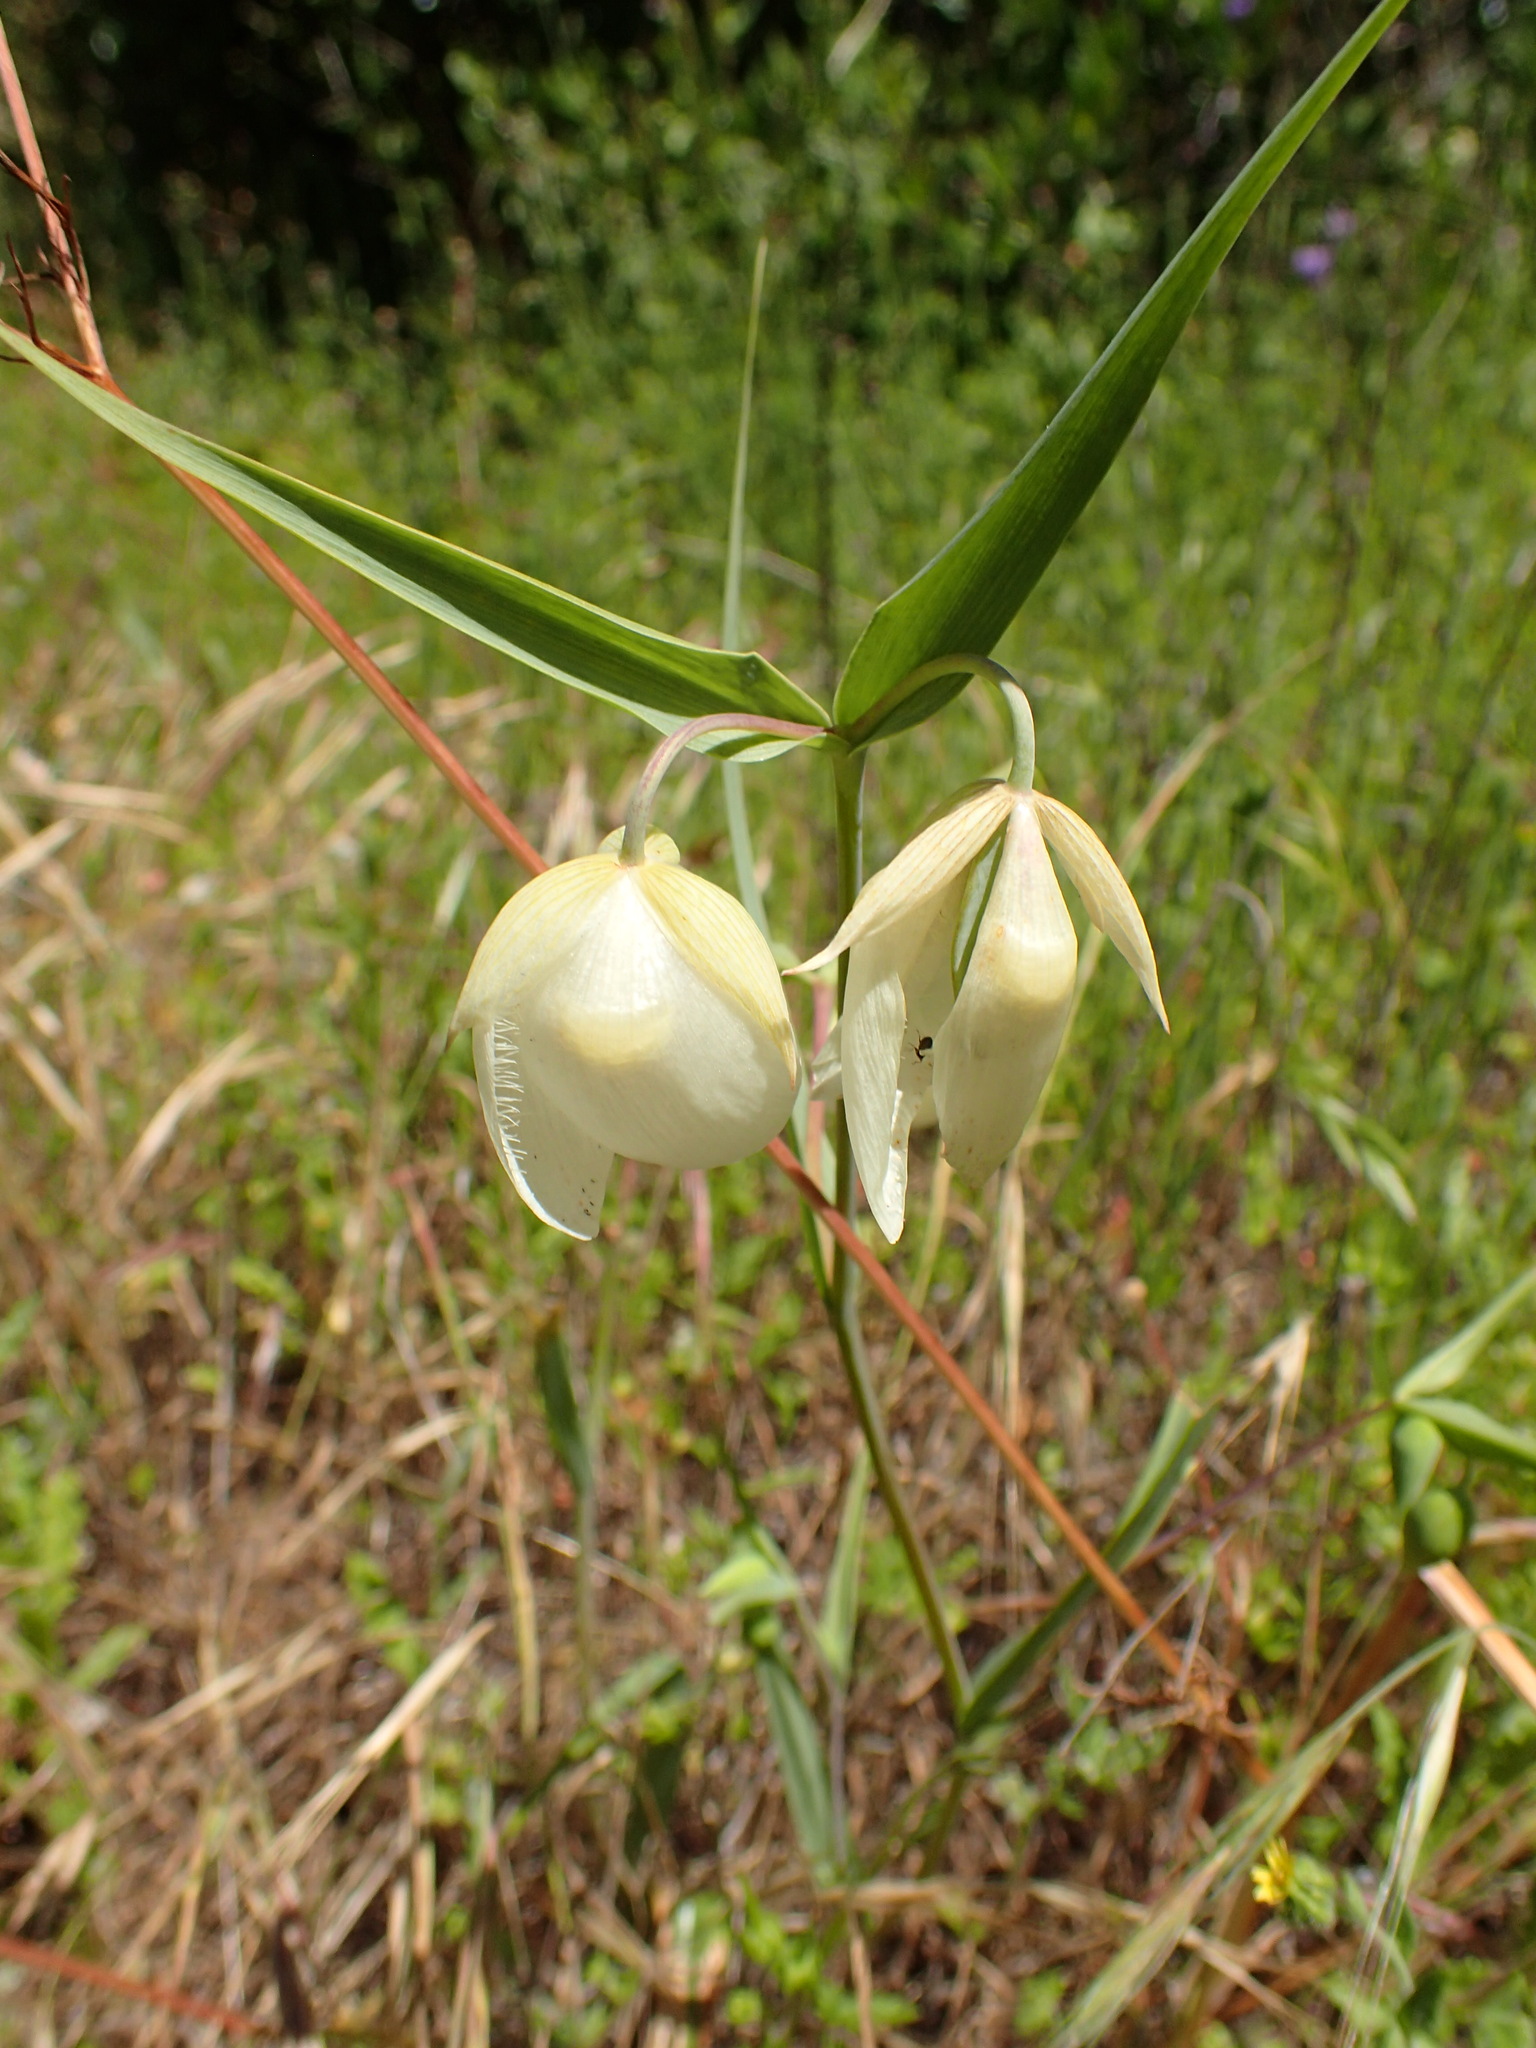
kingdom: Plantae
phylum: Tracheophyta
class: Liliopsida
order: Liliales
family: Liliaceae
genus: Calochortus
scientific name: Calochortus albus
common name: Fairy-lantern
